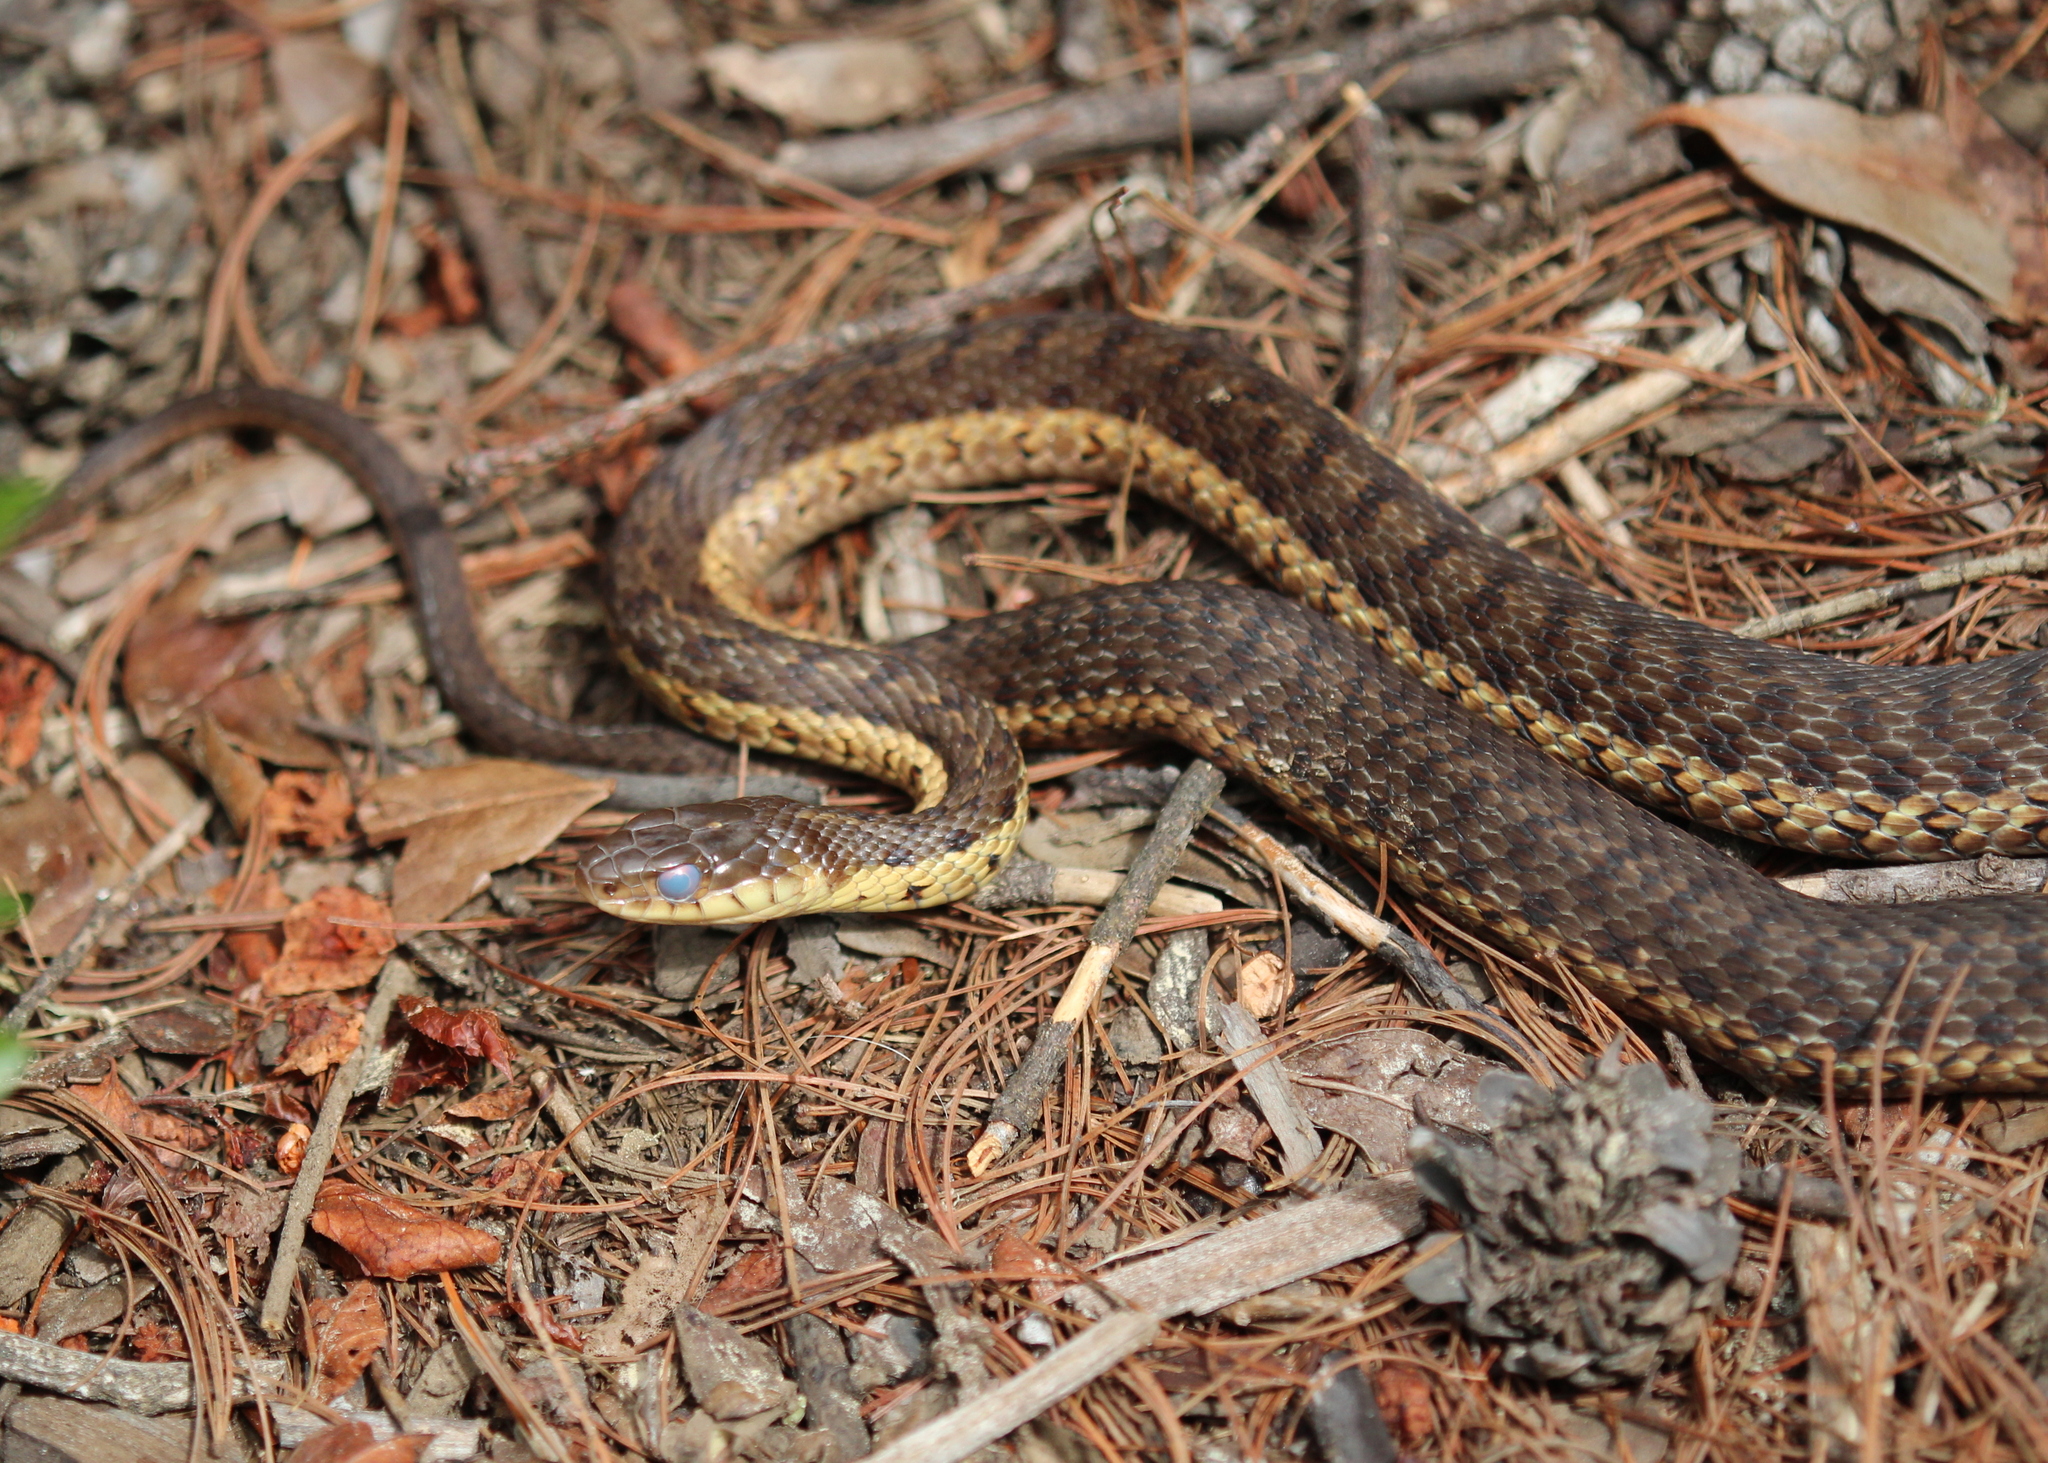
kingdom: Animalia
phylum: Chordata
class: Squamata
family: Colubridae
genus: Thamnophis
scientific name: Thamnophis sirtalis
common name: Common garter snake
